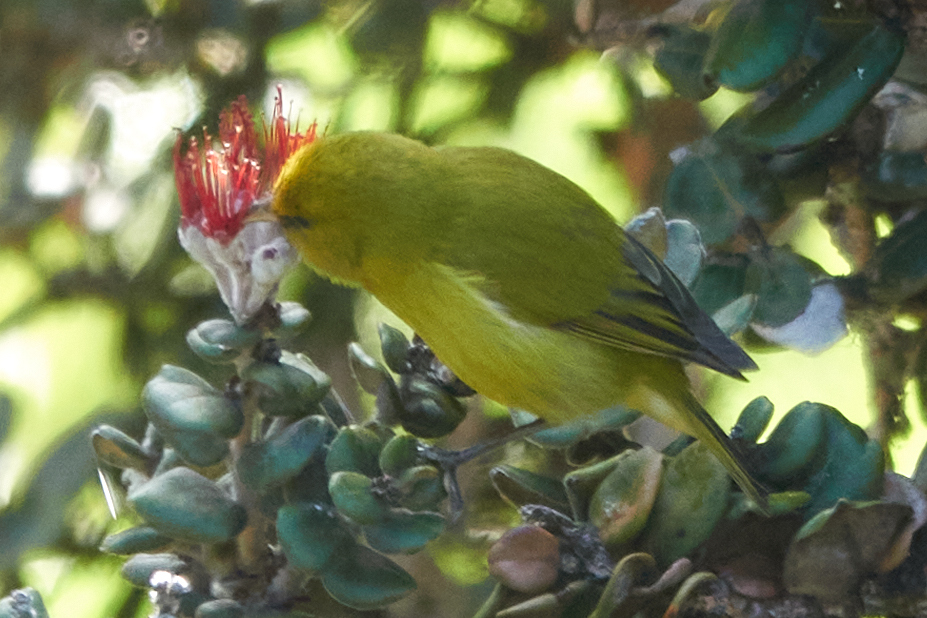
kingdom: Animalia
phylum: Chordata
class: Aves
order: Passeriformes
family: Fringillidae
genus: Chlorodrepanis
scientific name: Chlorodrepanis virens
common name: Hawaii amakihi
